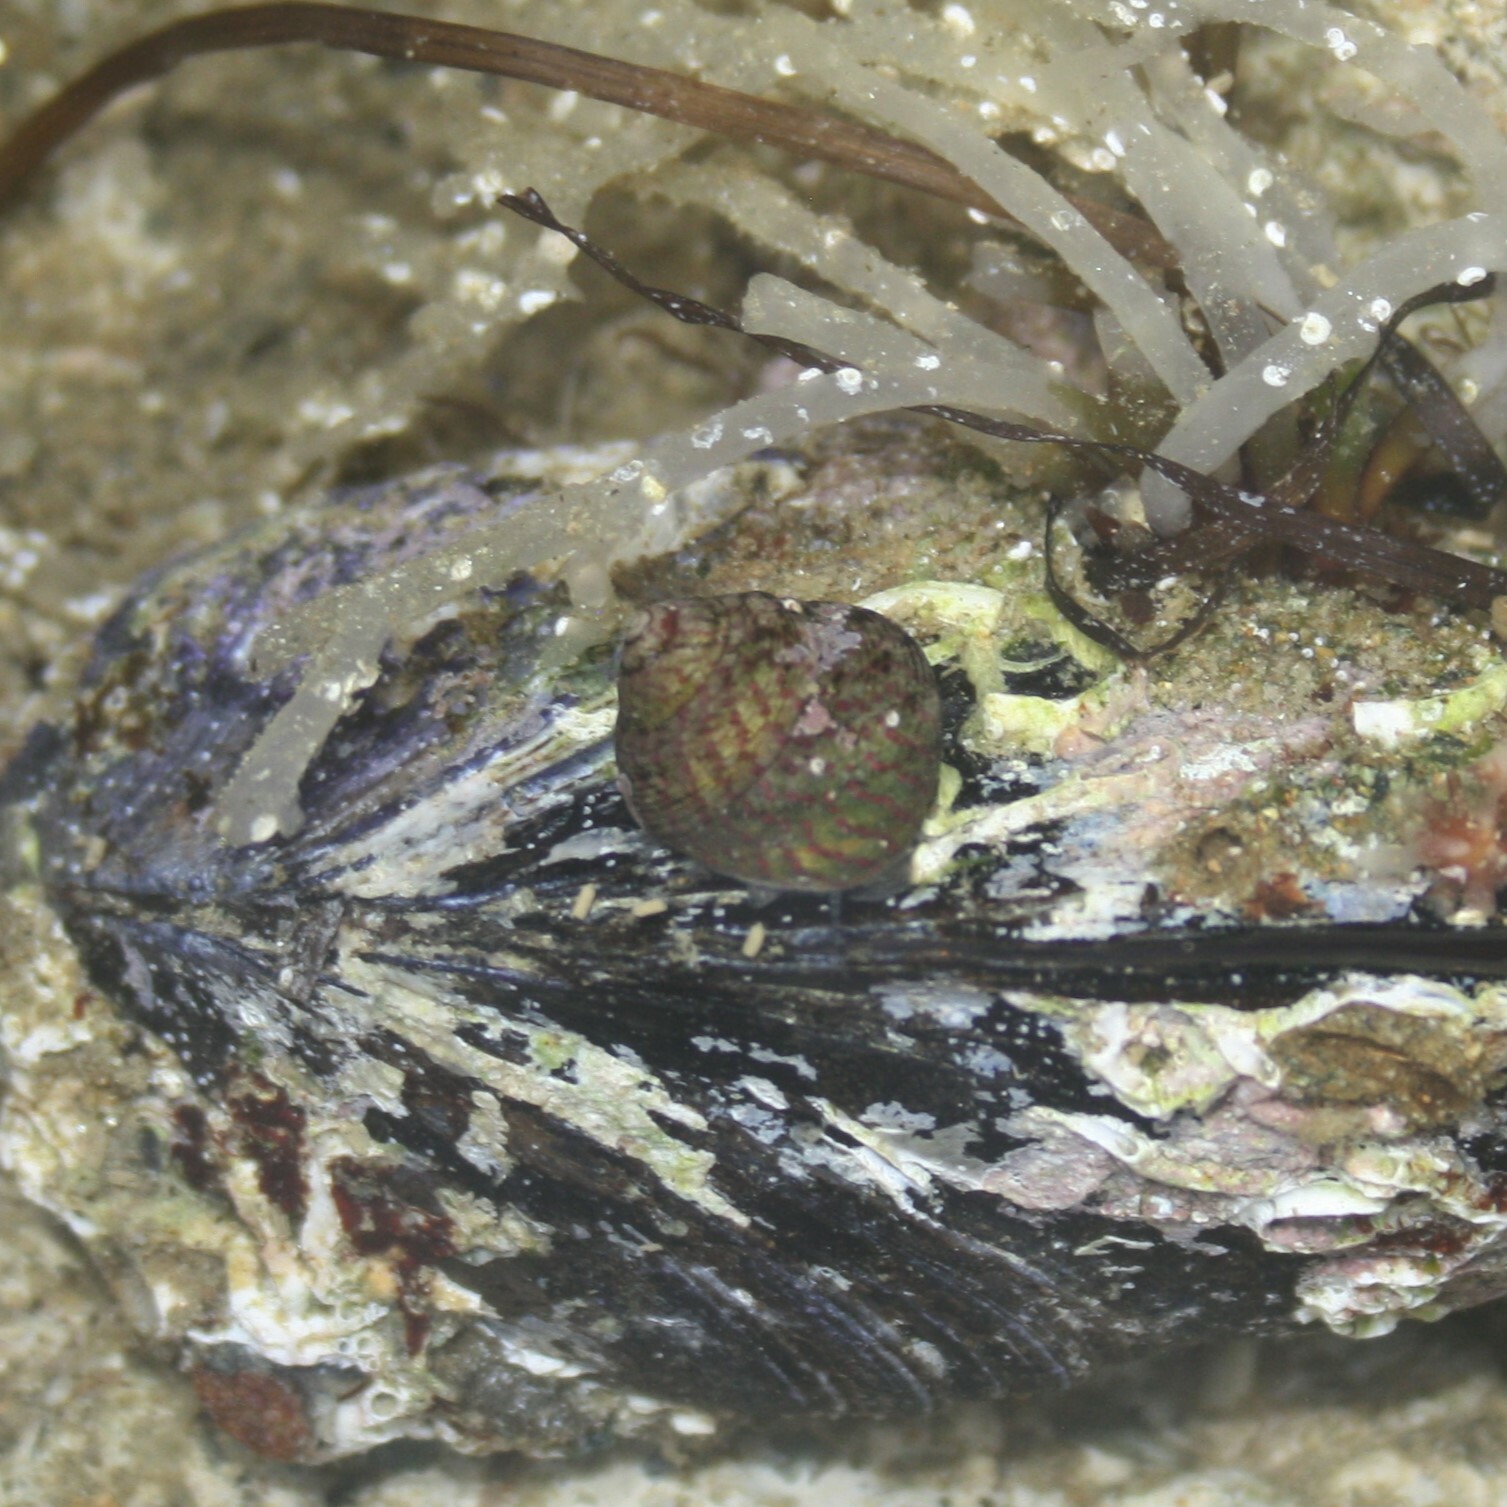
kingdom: Animalia
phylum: Mollusca
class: Gastropoda
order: Trochida
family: Trochidae
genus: Steromphala
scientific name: Steromphala
